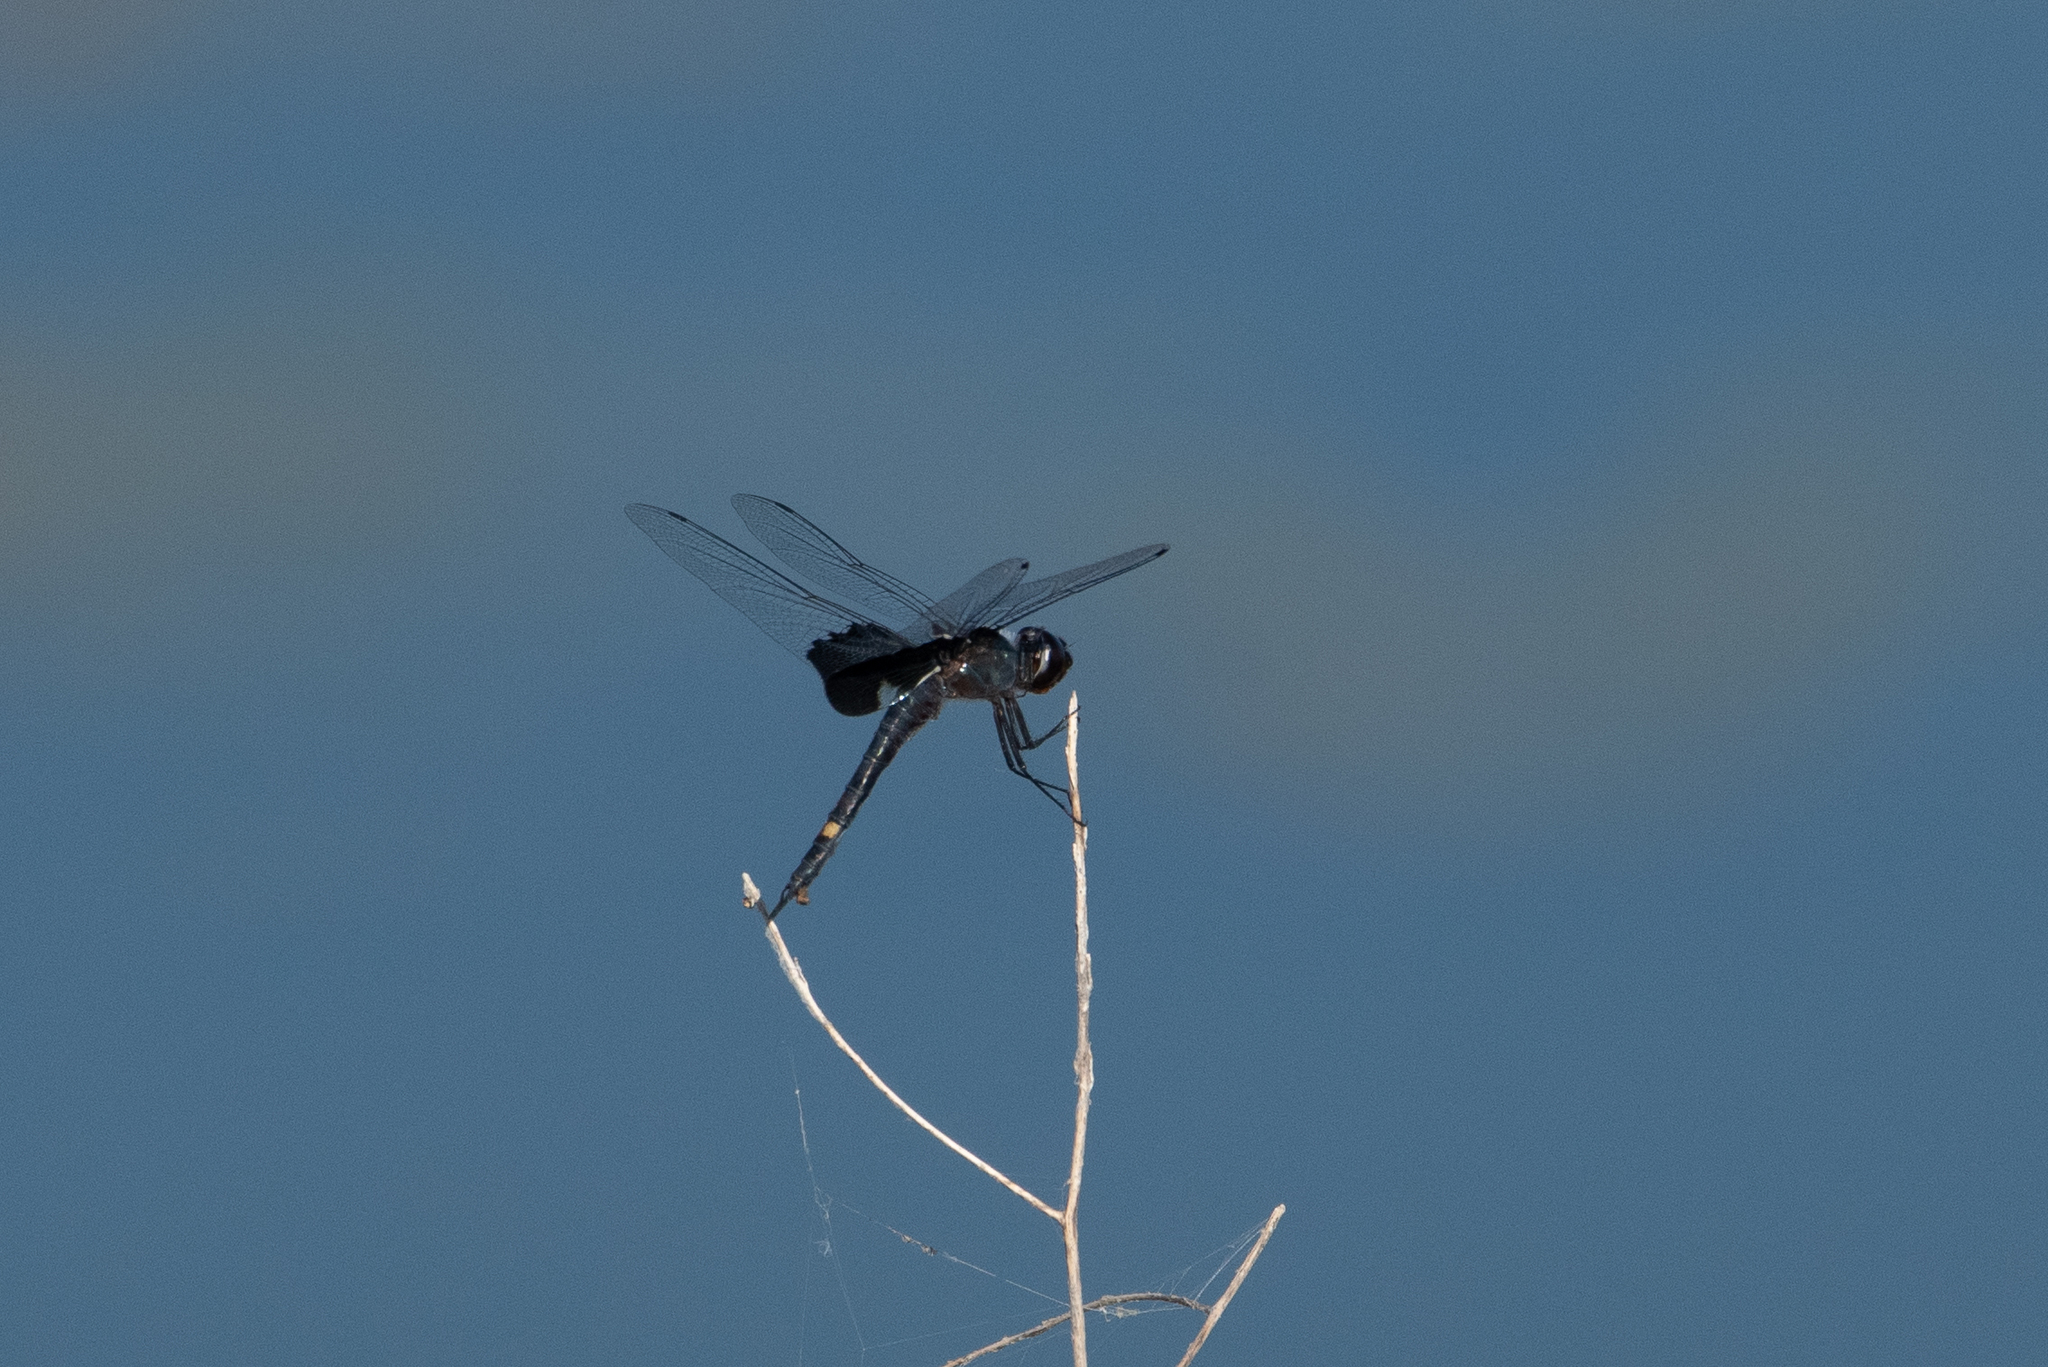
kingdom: Animalia
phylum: Arthropoda
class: Insecta
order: Odonata
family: Libellulidae
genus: Tramea
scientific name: Tramea lacerata
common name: Black saddlebags
